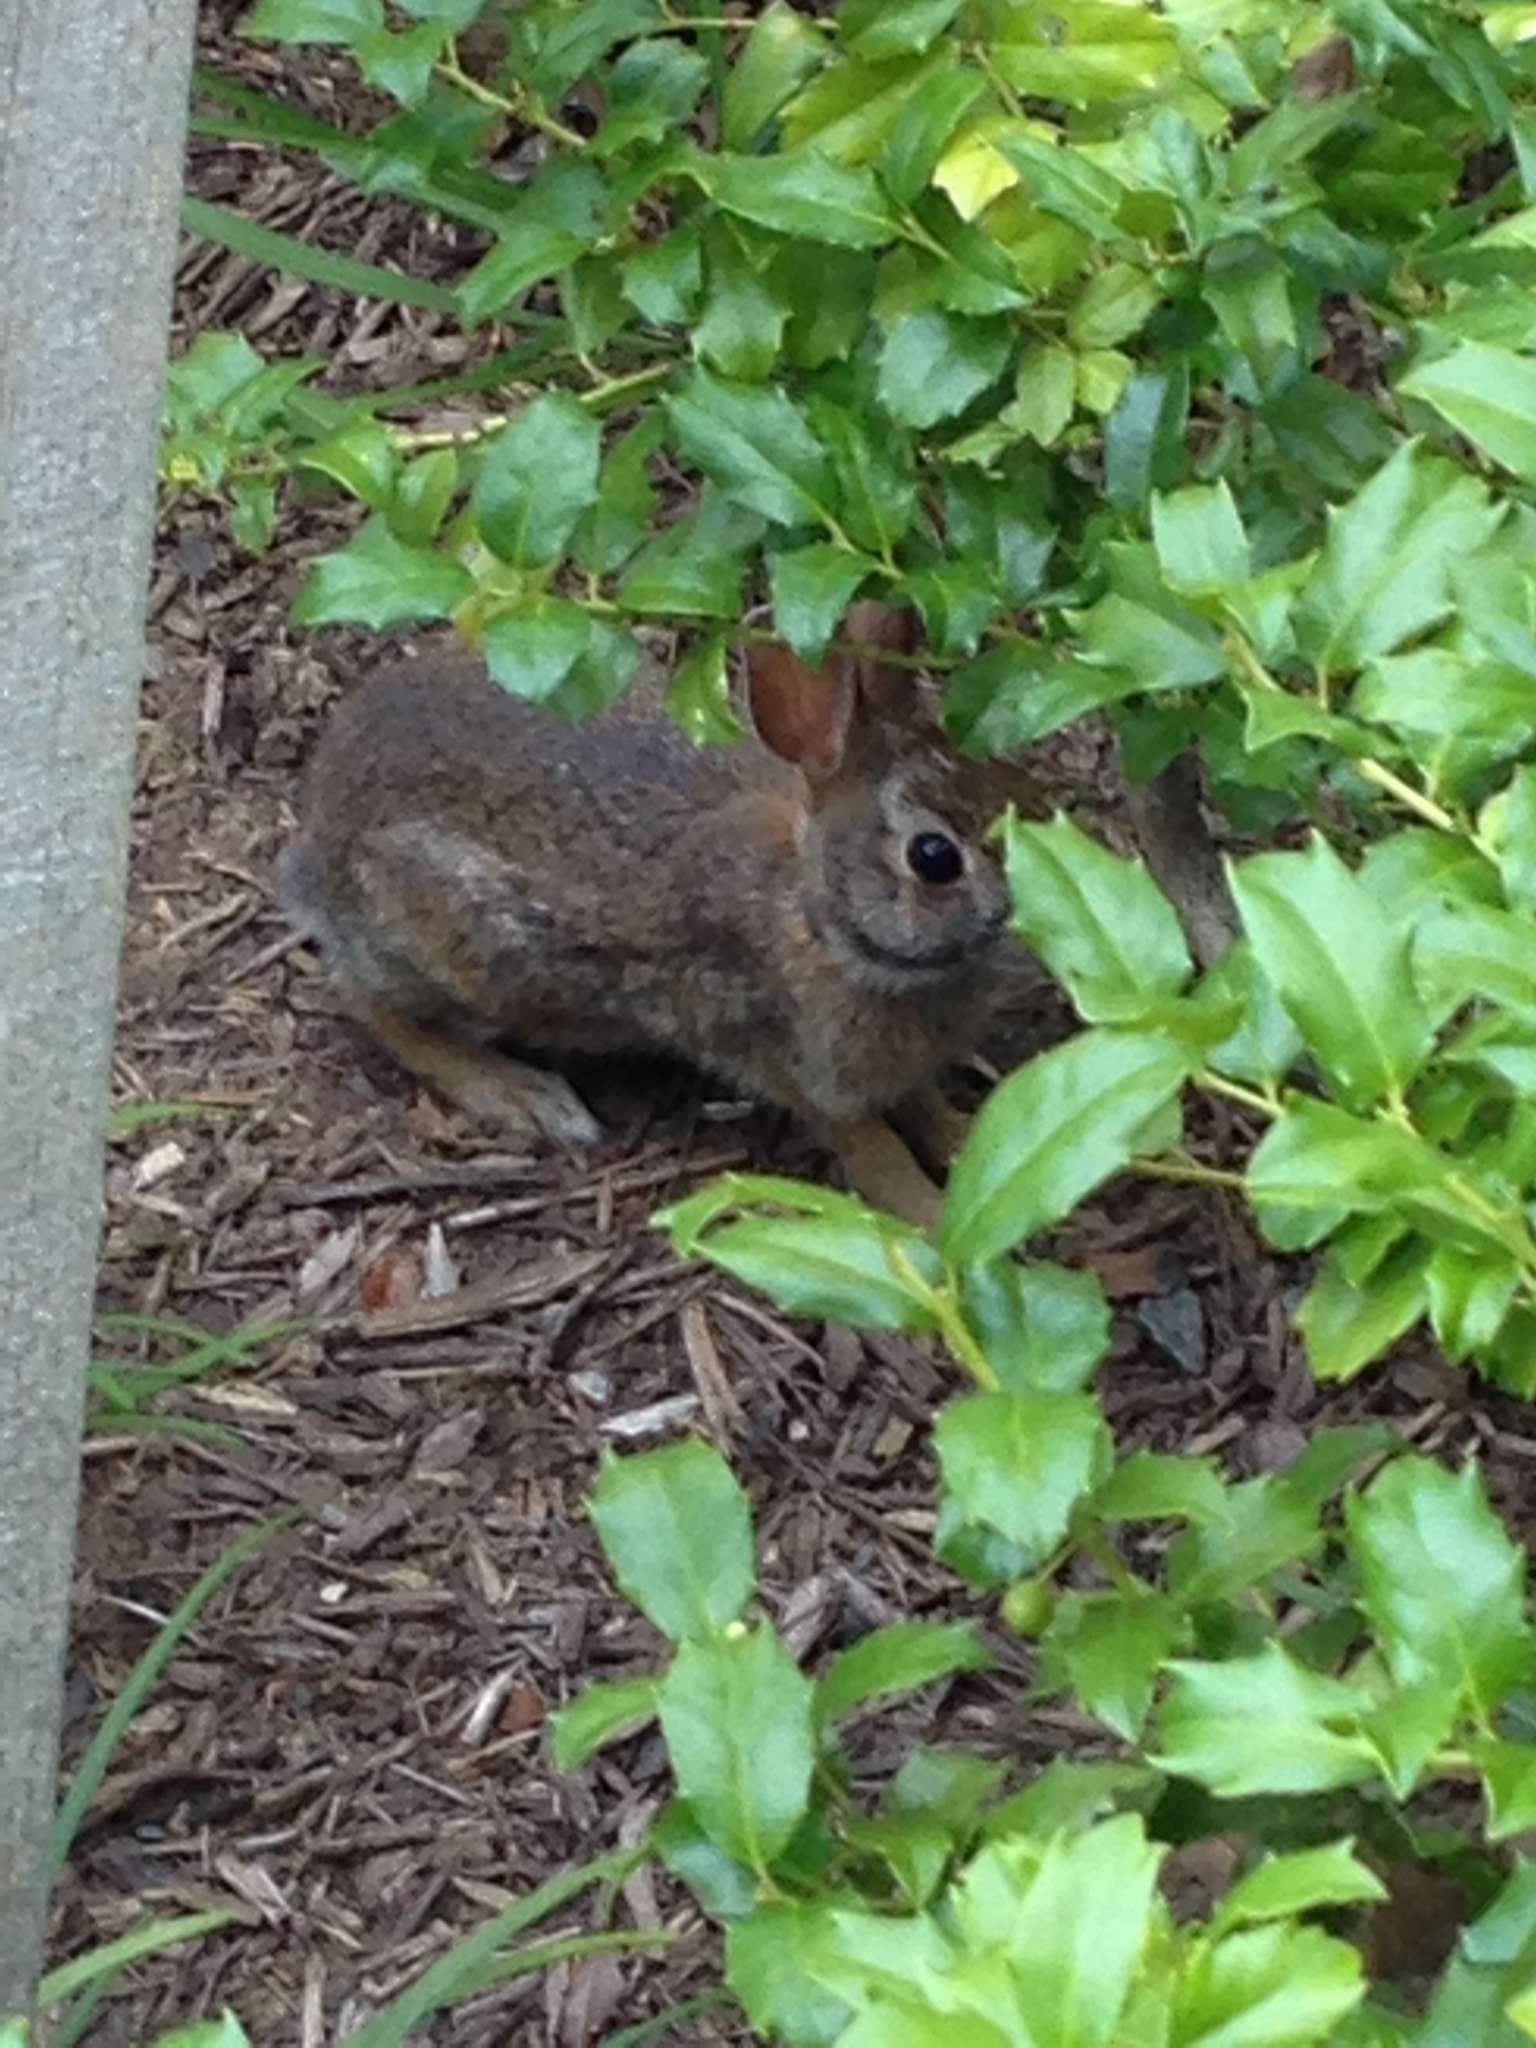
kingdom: Animalia
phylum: Chordata
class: Mammalia
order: Lagomorpha
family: Leporidae
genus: Sylvilagus
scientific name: Sylvilagus floridanus
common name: Eastern cottontail
